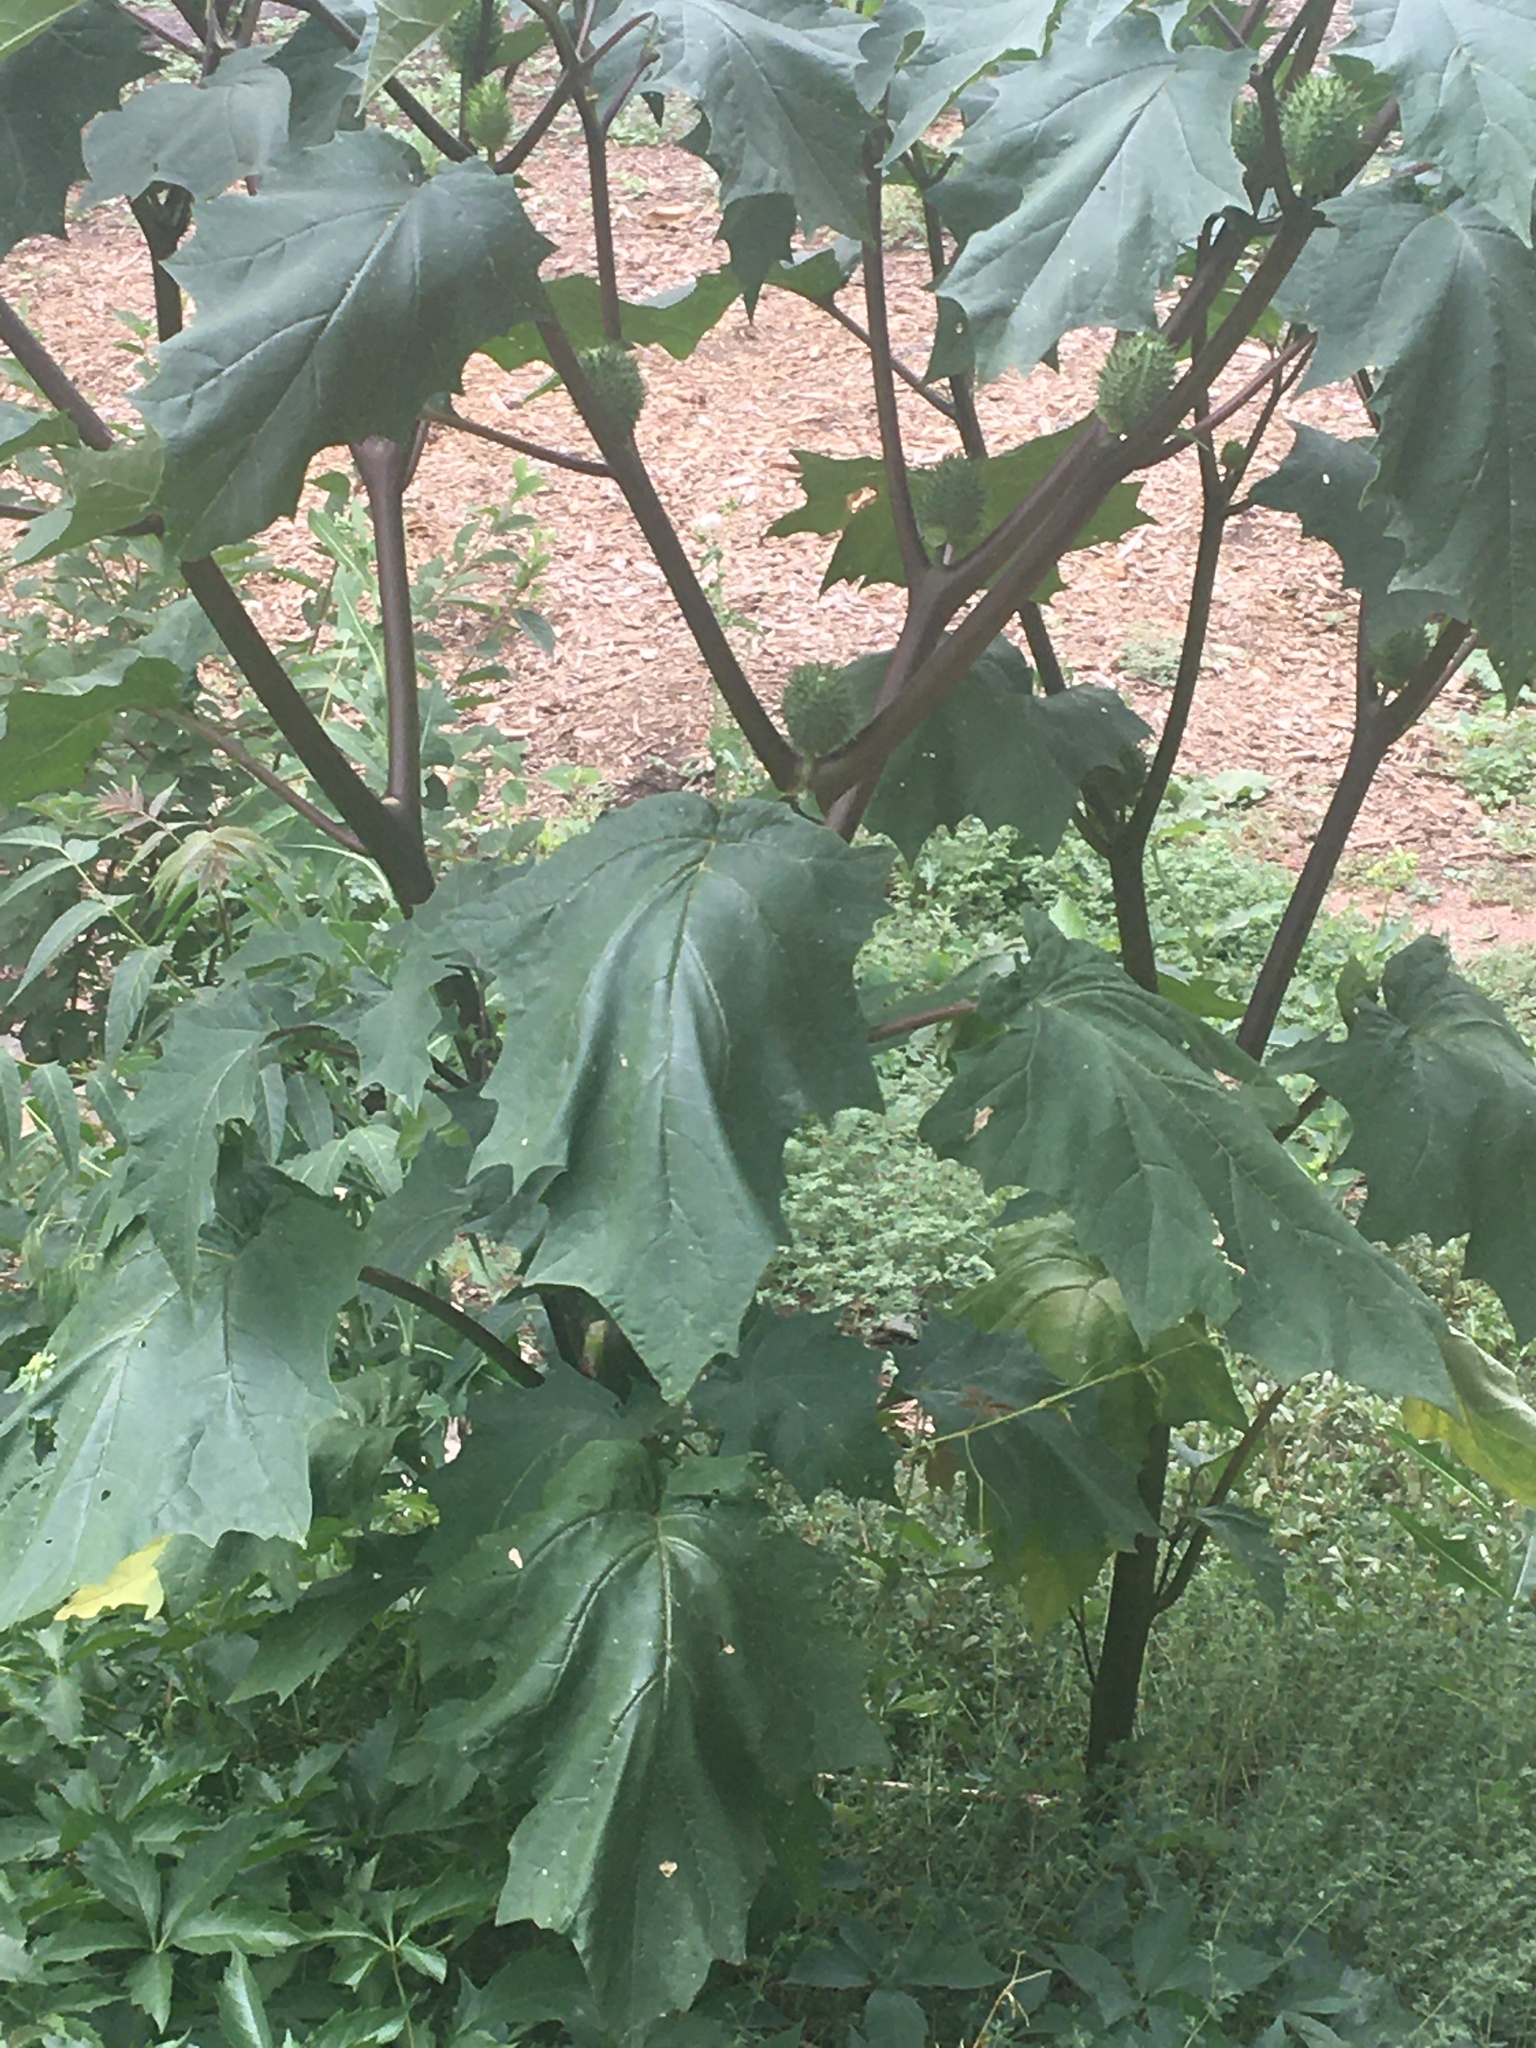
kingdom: Plantae
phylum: Tracheophyta
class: Magnoliopsida
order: Solanales
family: Solanaceae
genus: Datura
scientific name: Datura stramonium
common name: Thorn-apple
